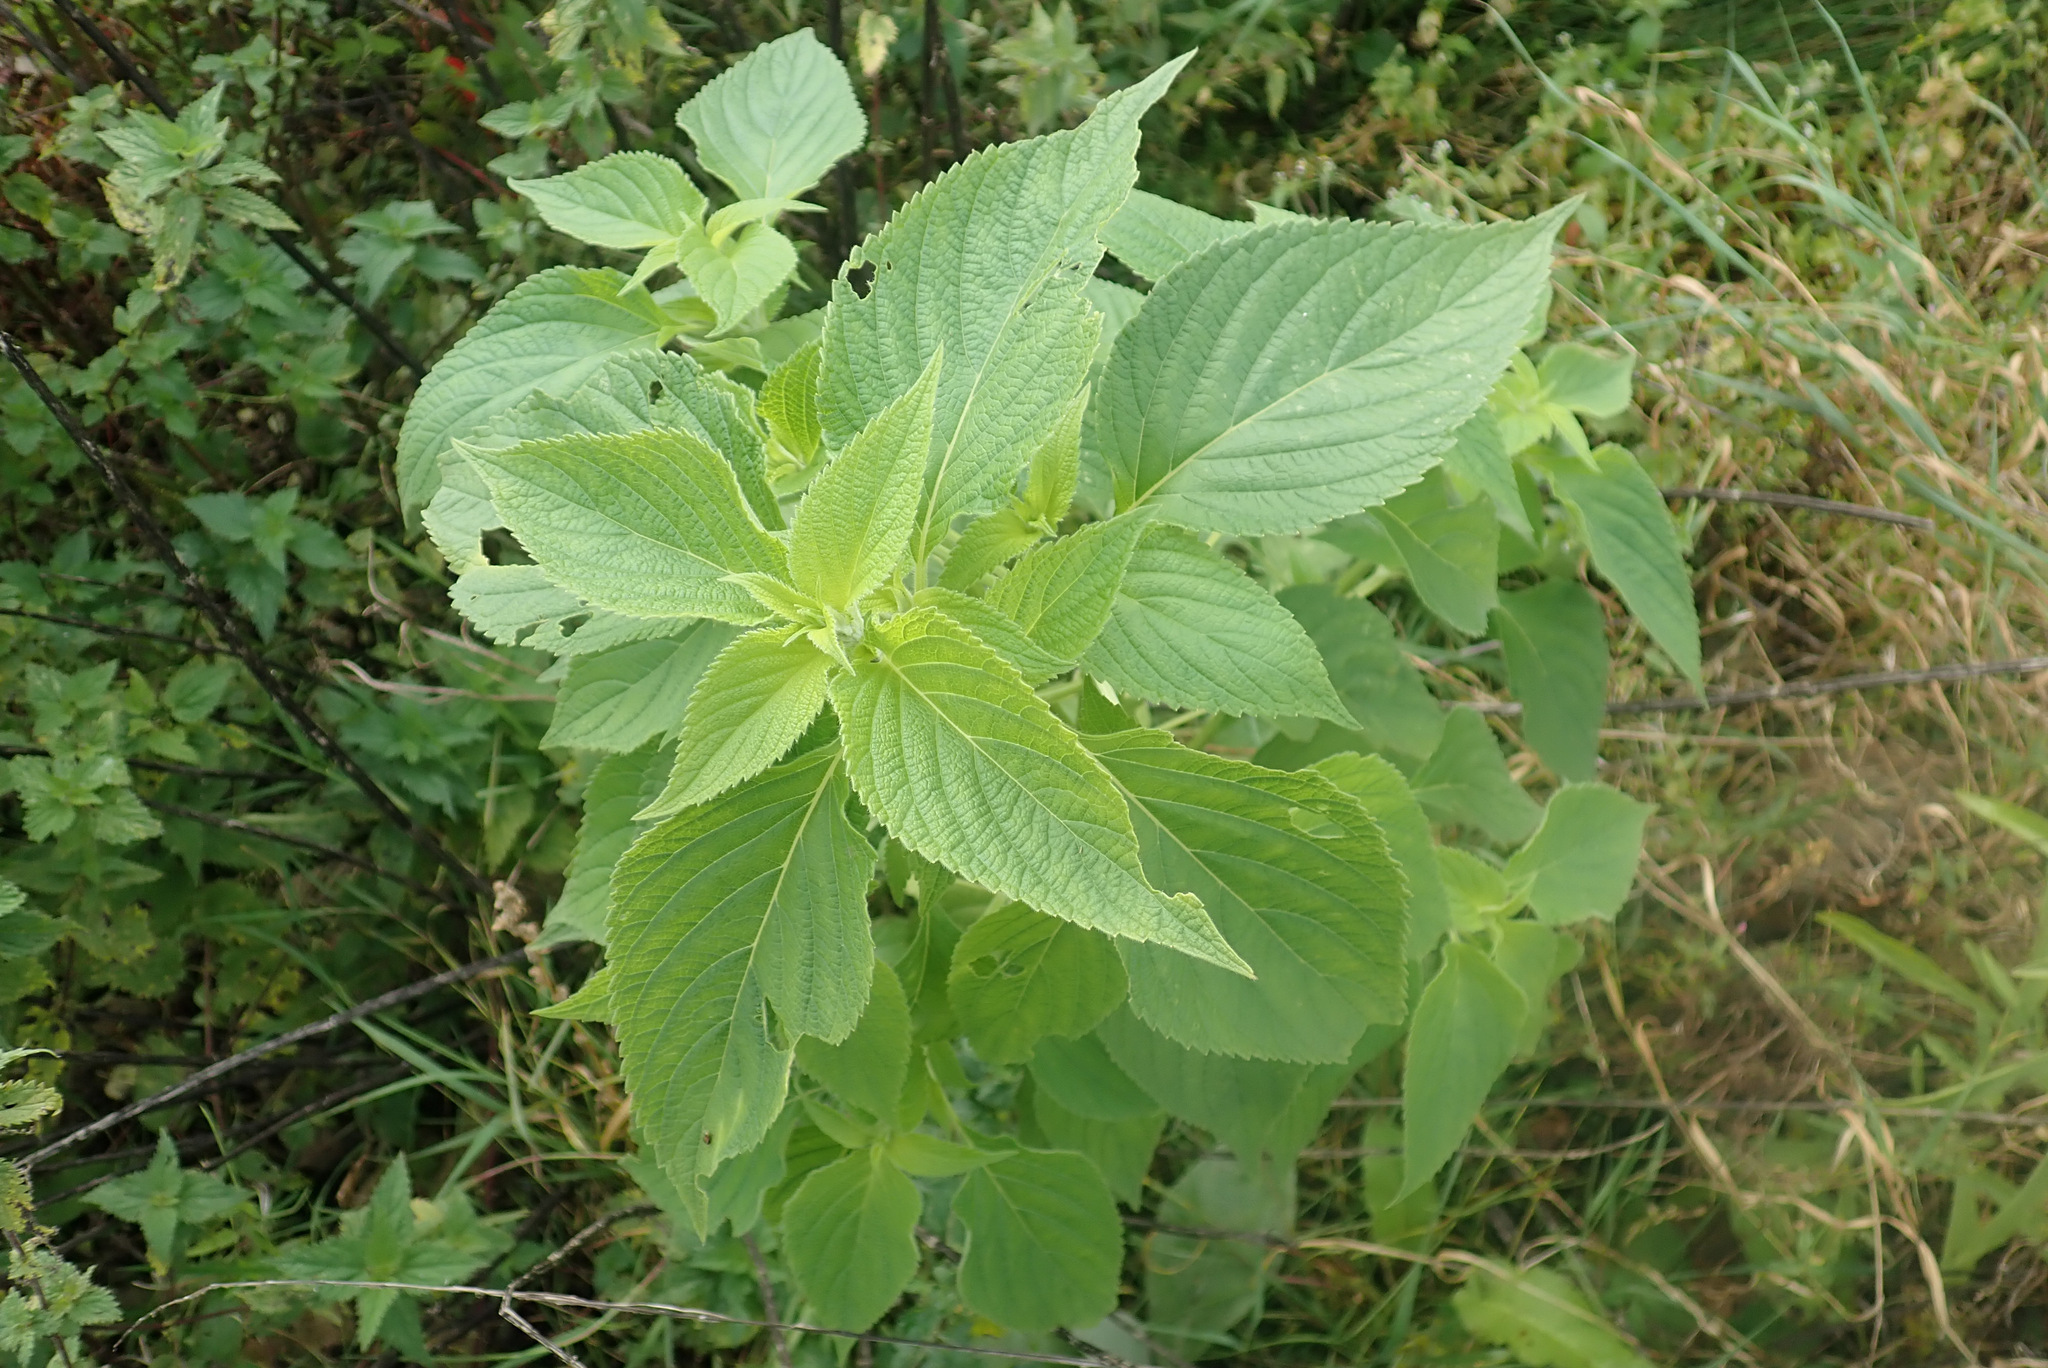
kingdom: Plantae
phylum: Tracheophyta
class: Magnoliopsida
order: Lamiales
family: Lamiaceae
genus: Salvia
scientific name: Salvia hispanica
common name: Chia
